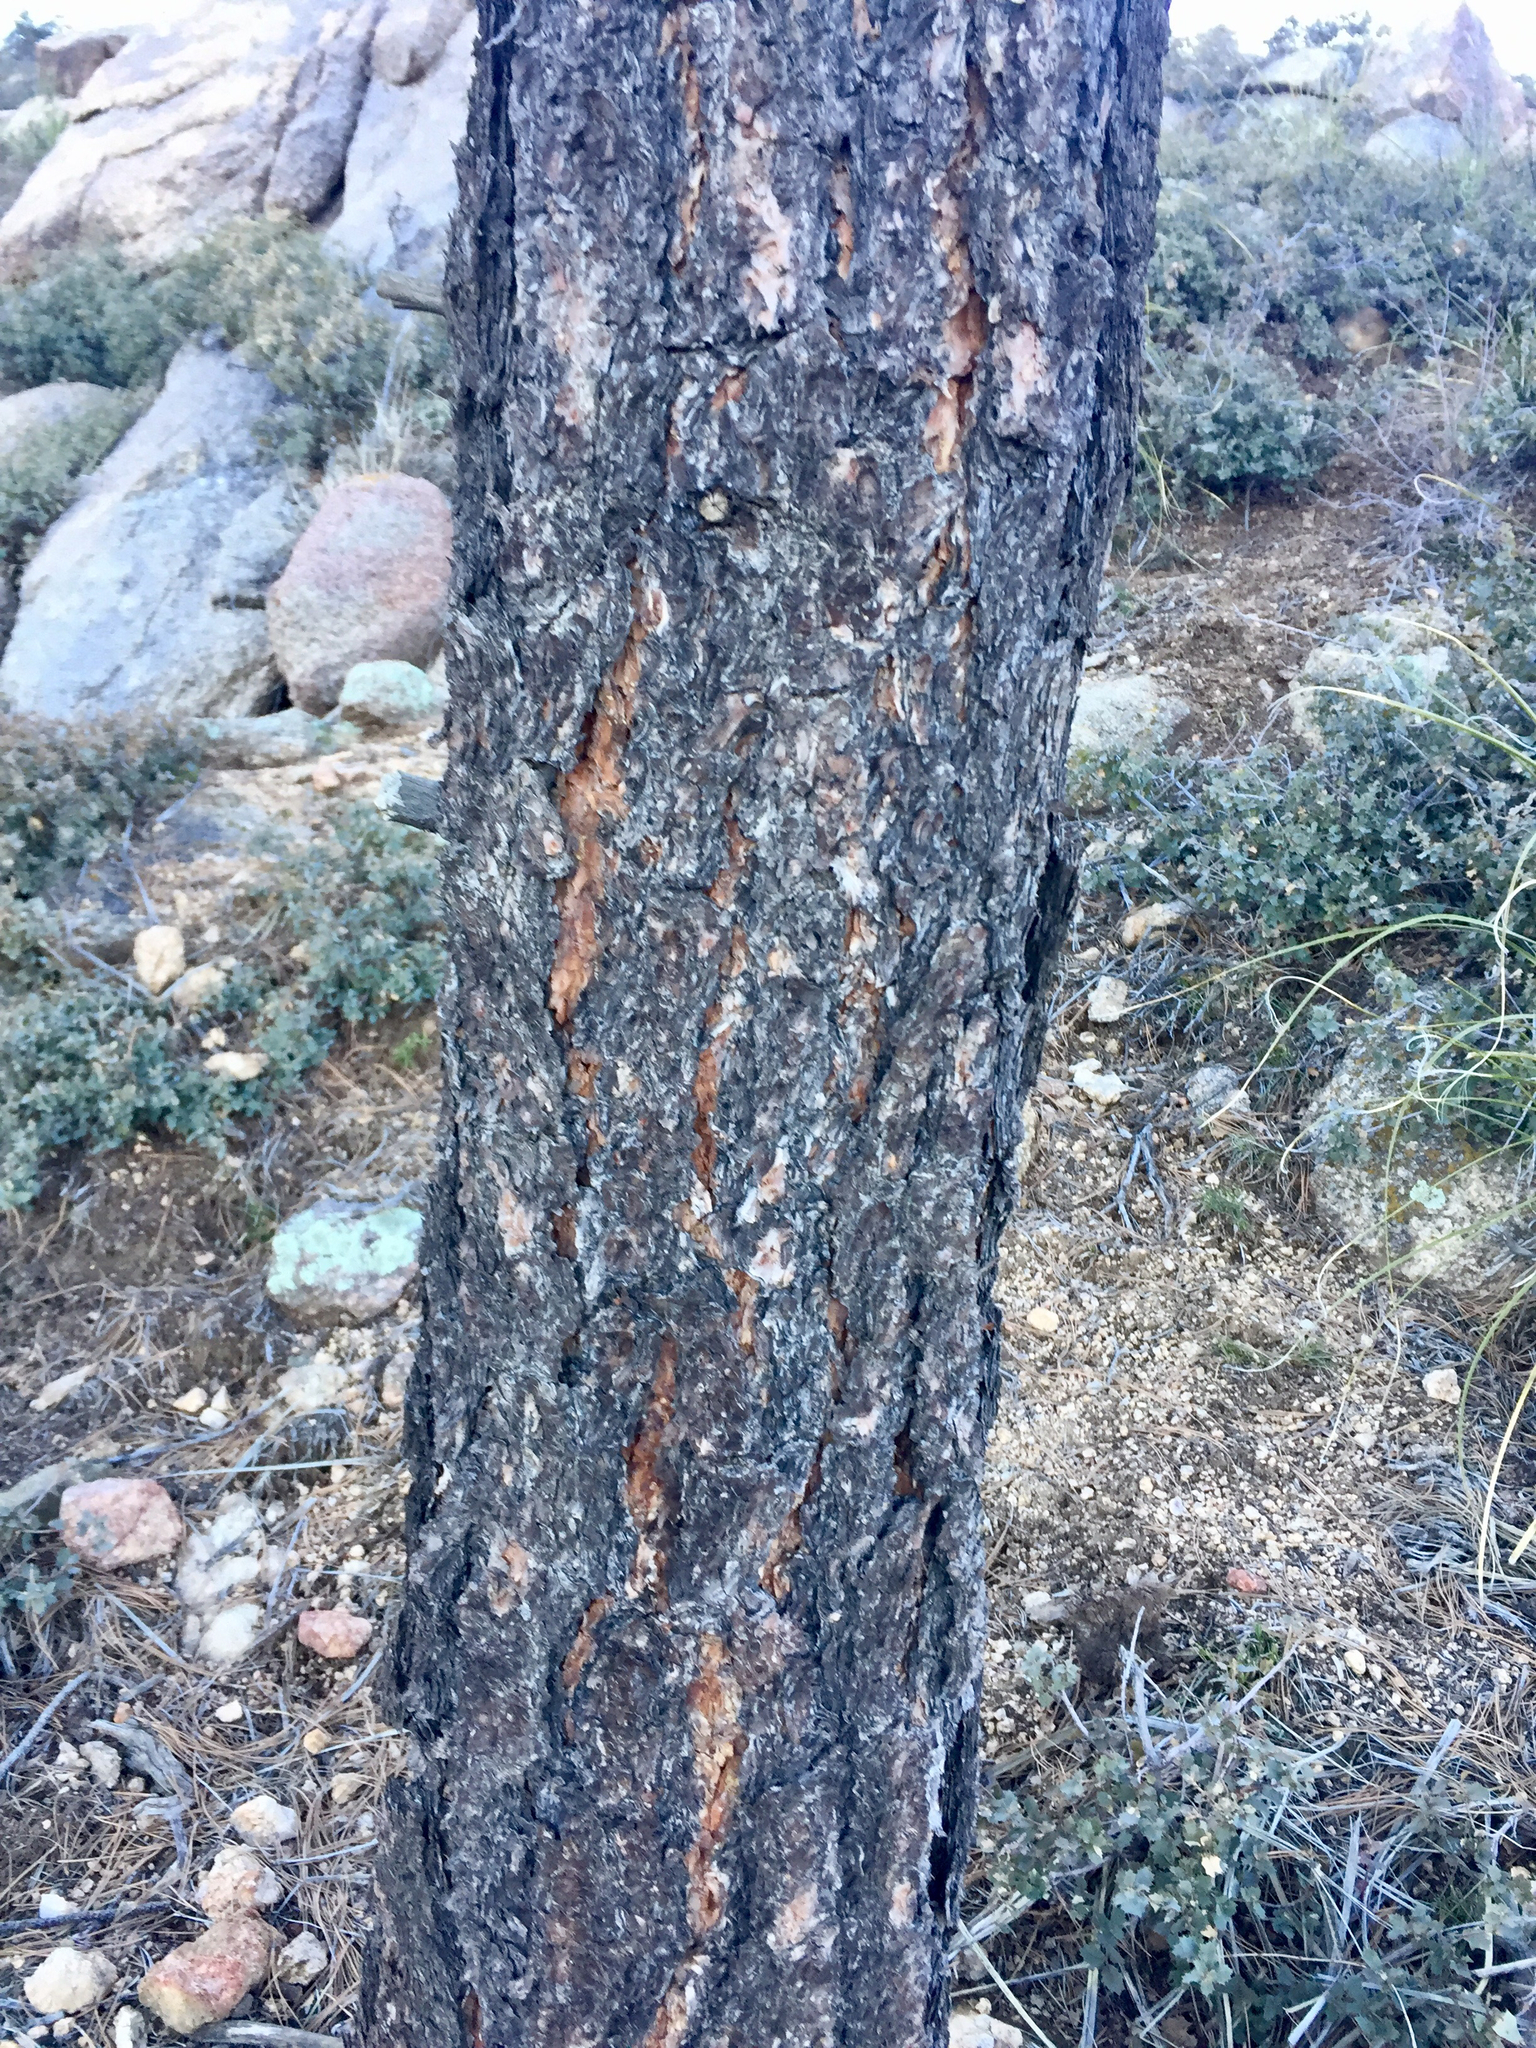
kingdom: Plantae
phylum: Tracheophyta
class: Pinopsida
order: Pinales
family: Pinaceae
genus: Pinus
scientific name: Pinus ponderosa
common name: Western yellow-pine
